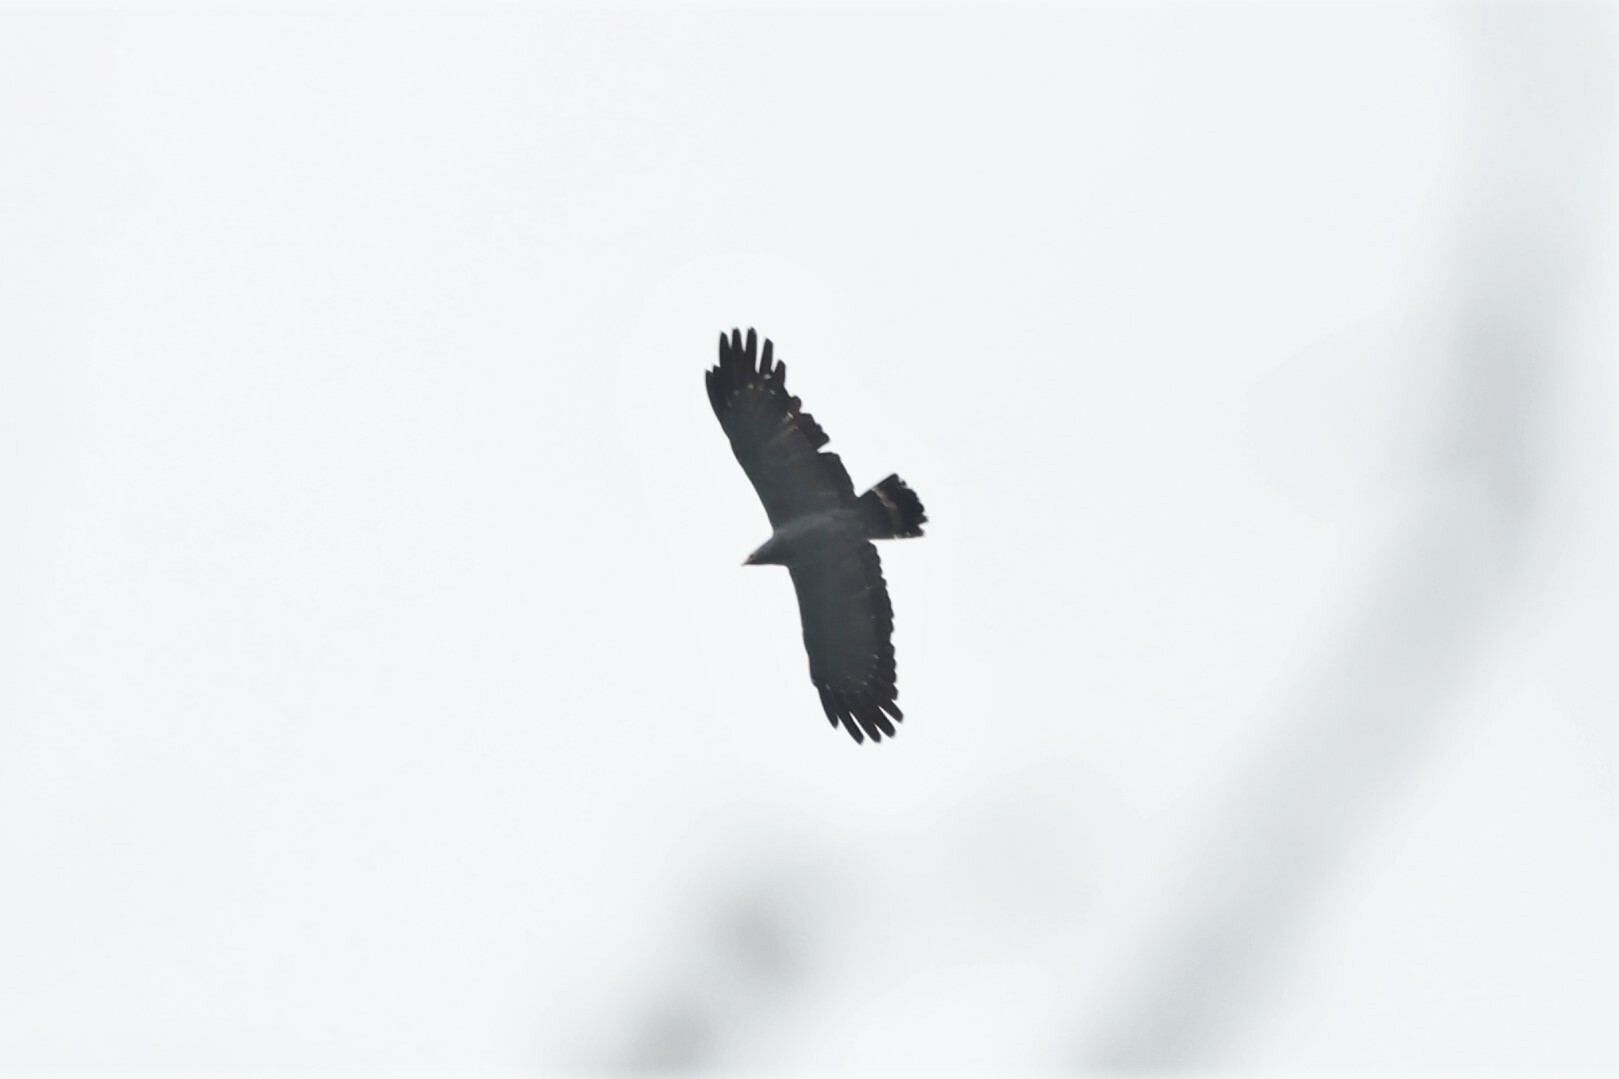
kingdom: Animalia
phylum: Chordata
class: Aves
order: Accipitriformes
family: Accipitridae
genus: Polyboroides
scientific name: Polyboroides typus
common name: African harrier-hawk
